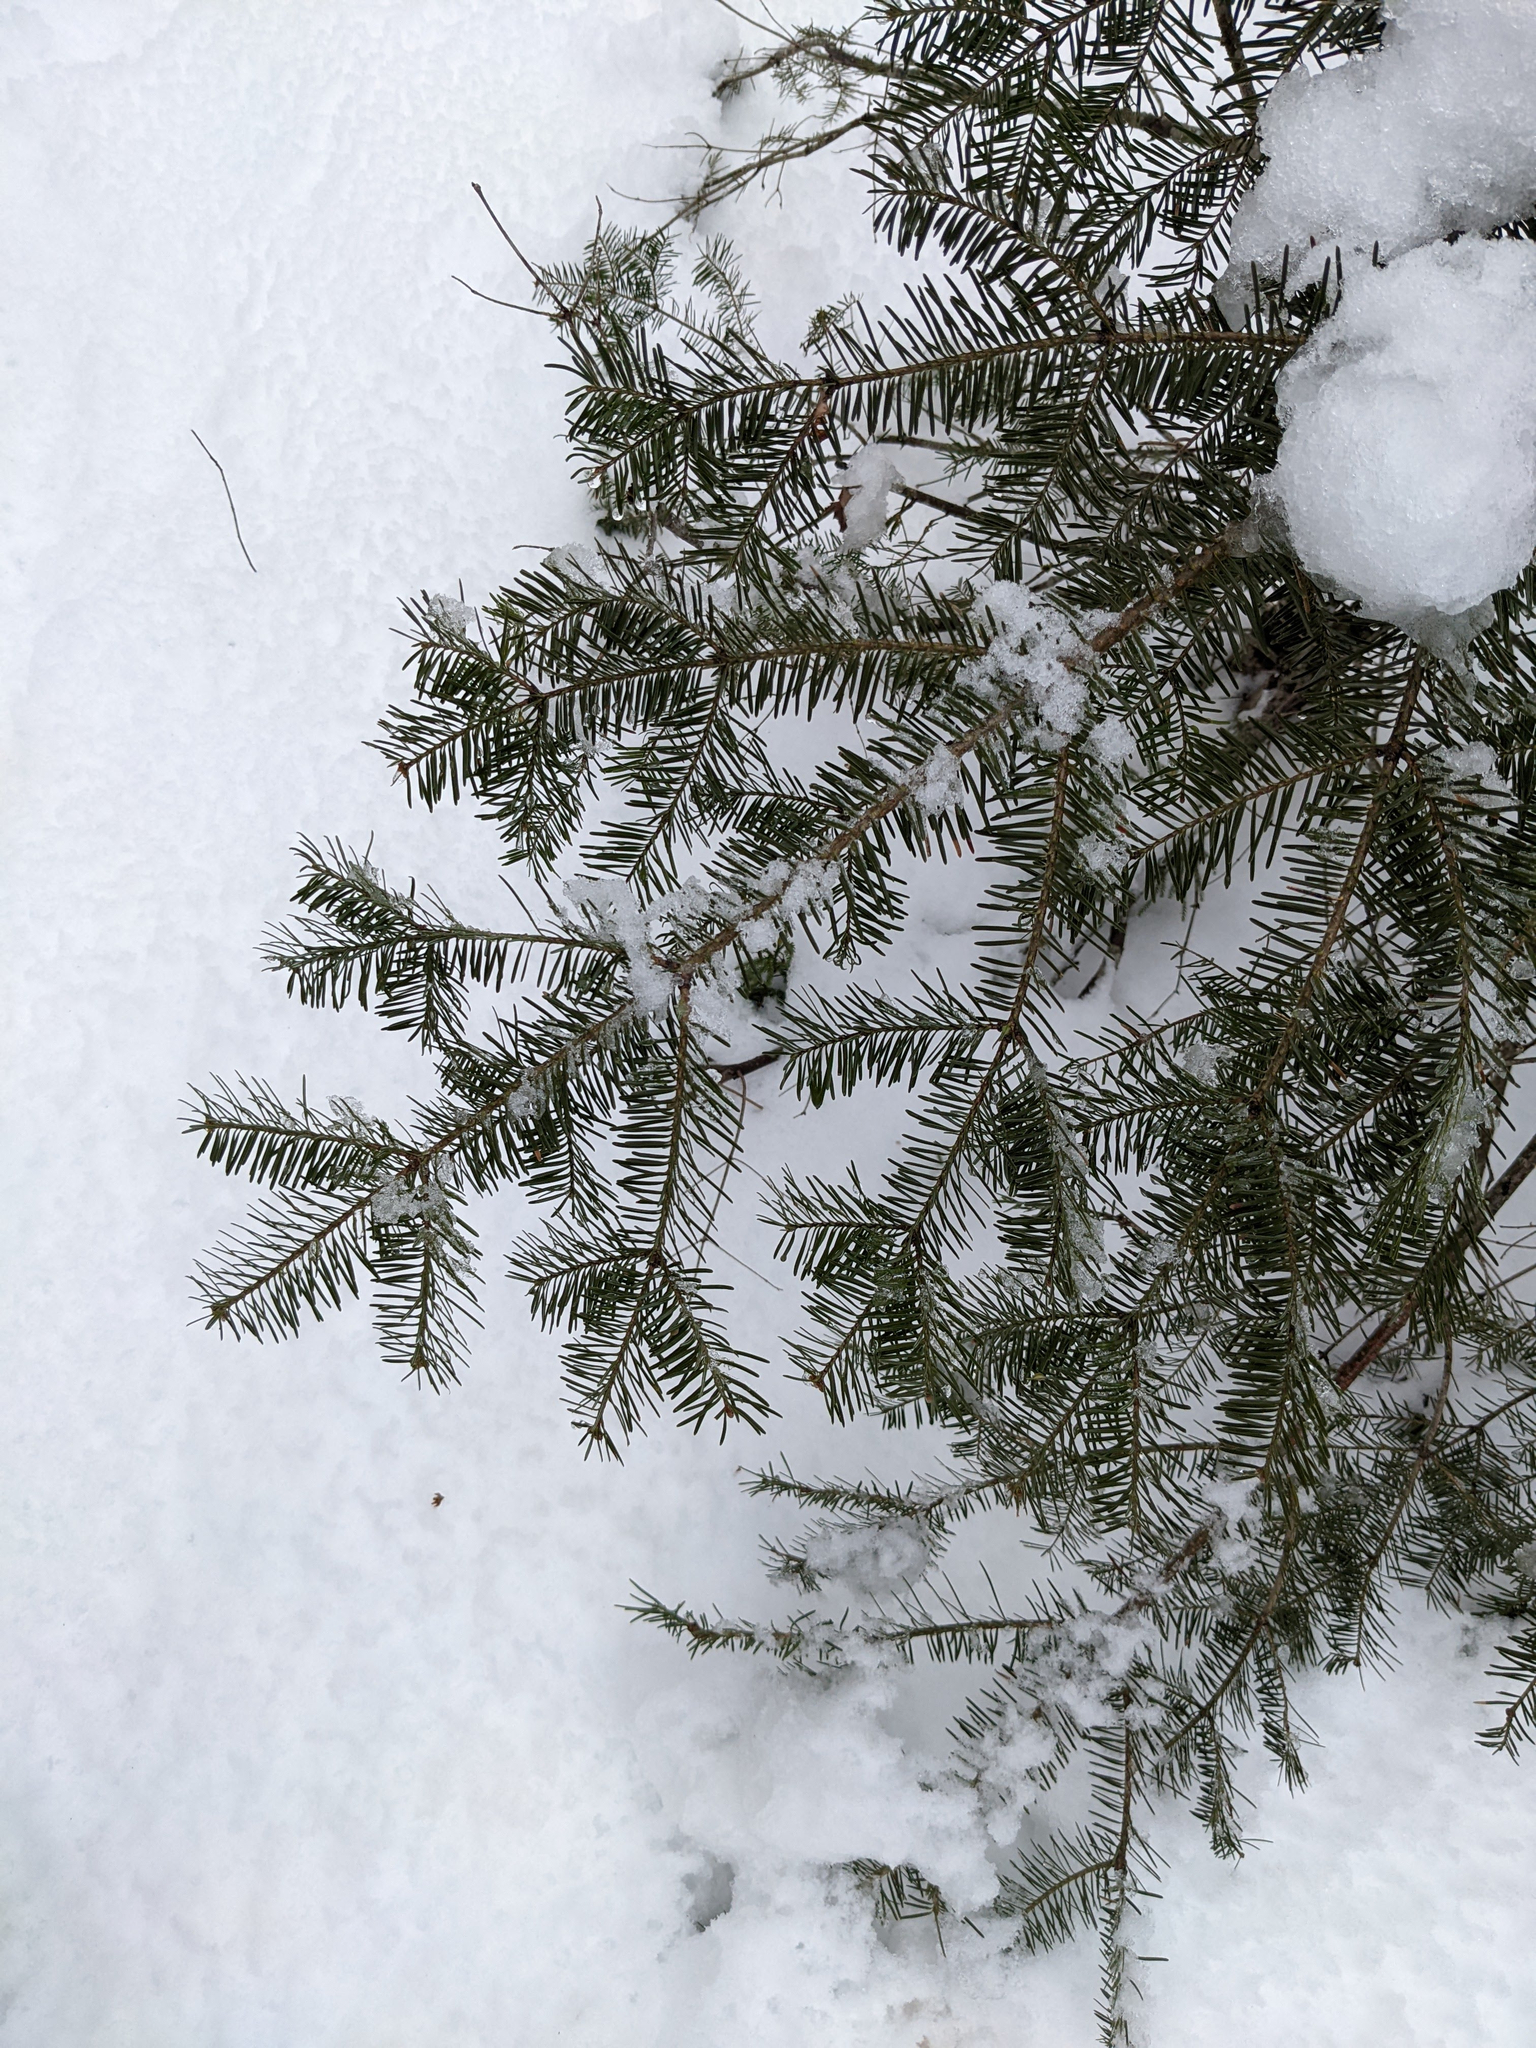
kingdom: Plantae
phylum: Tracheophyta
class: Pinopsida
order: Pinales
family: Pinaceae
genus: Abies
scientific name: Abies balsamea
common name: Balsam fir
